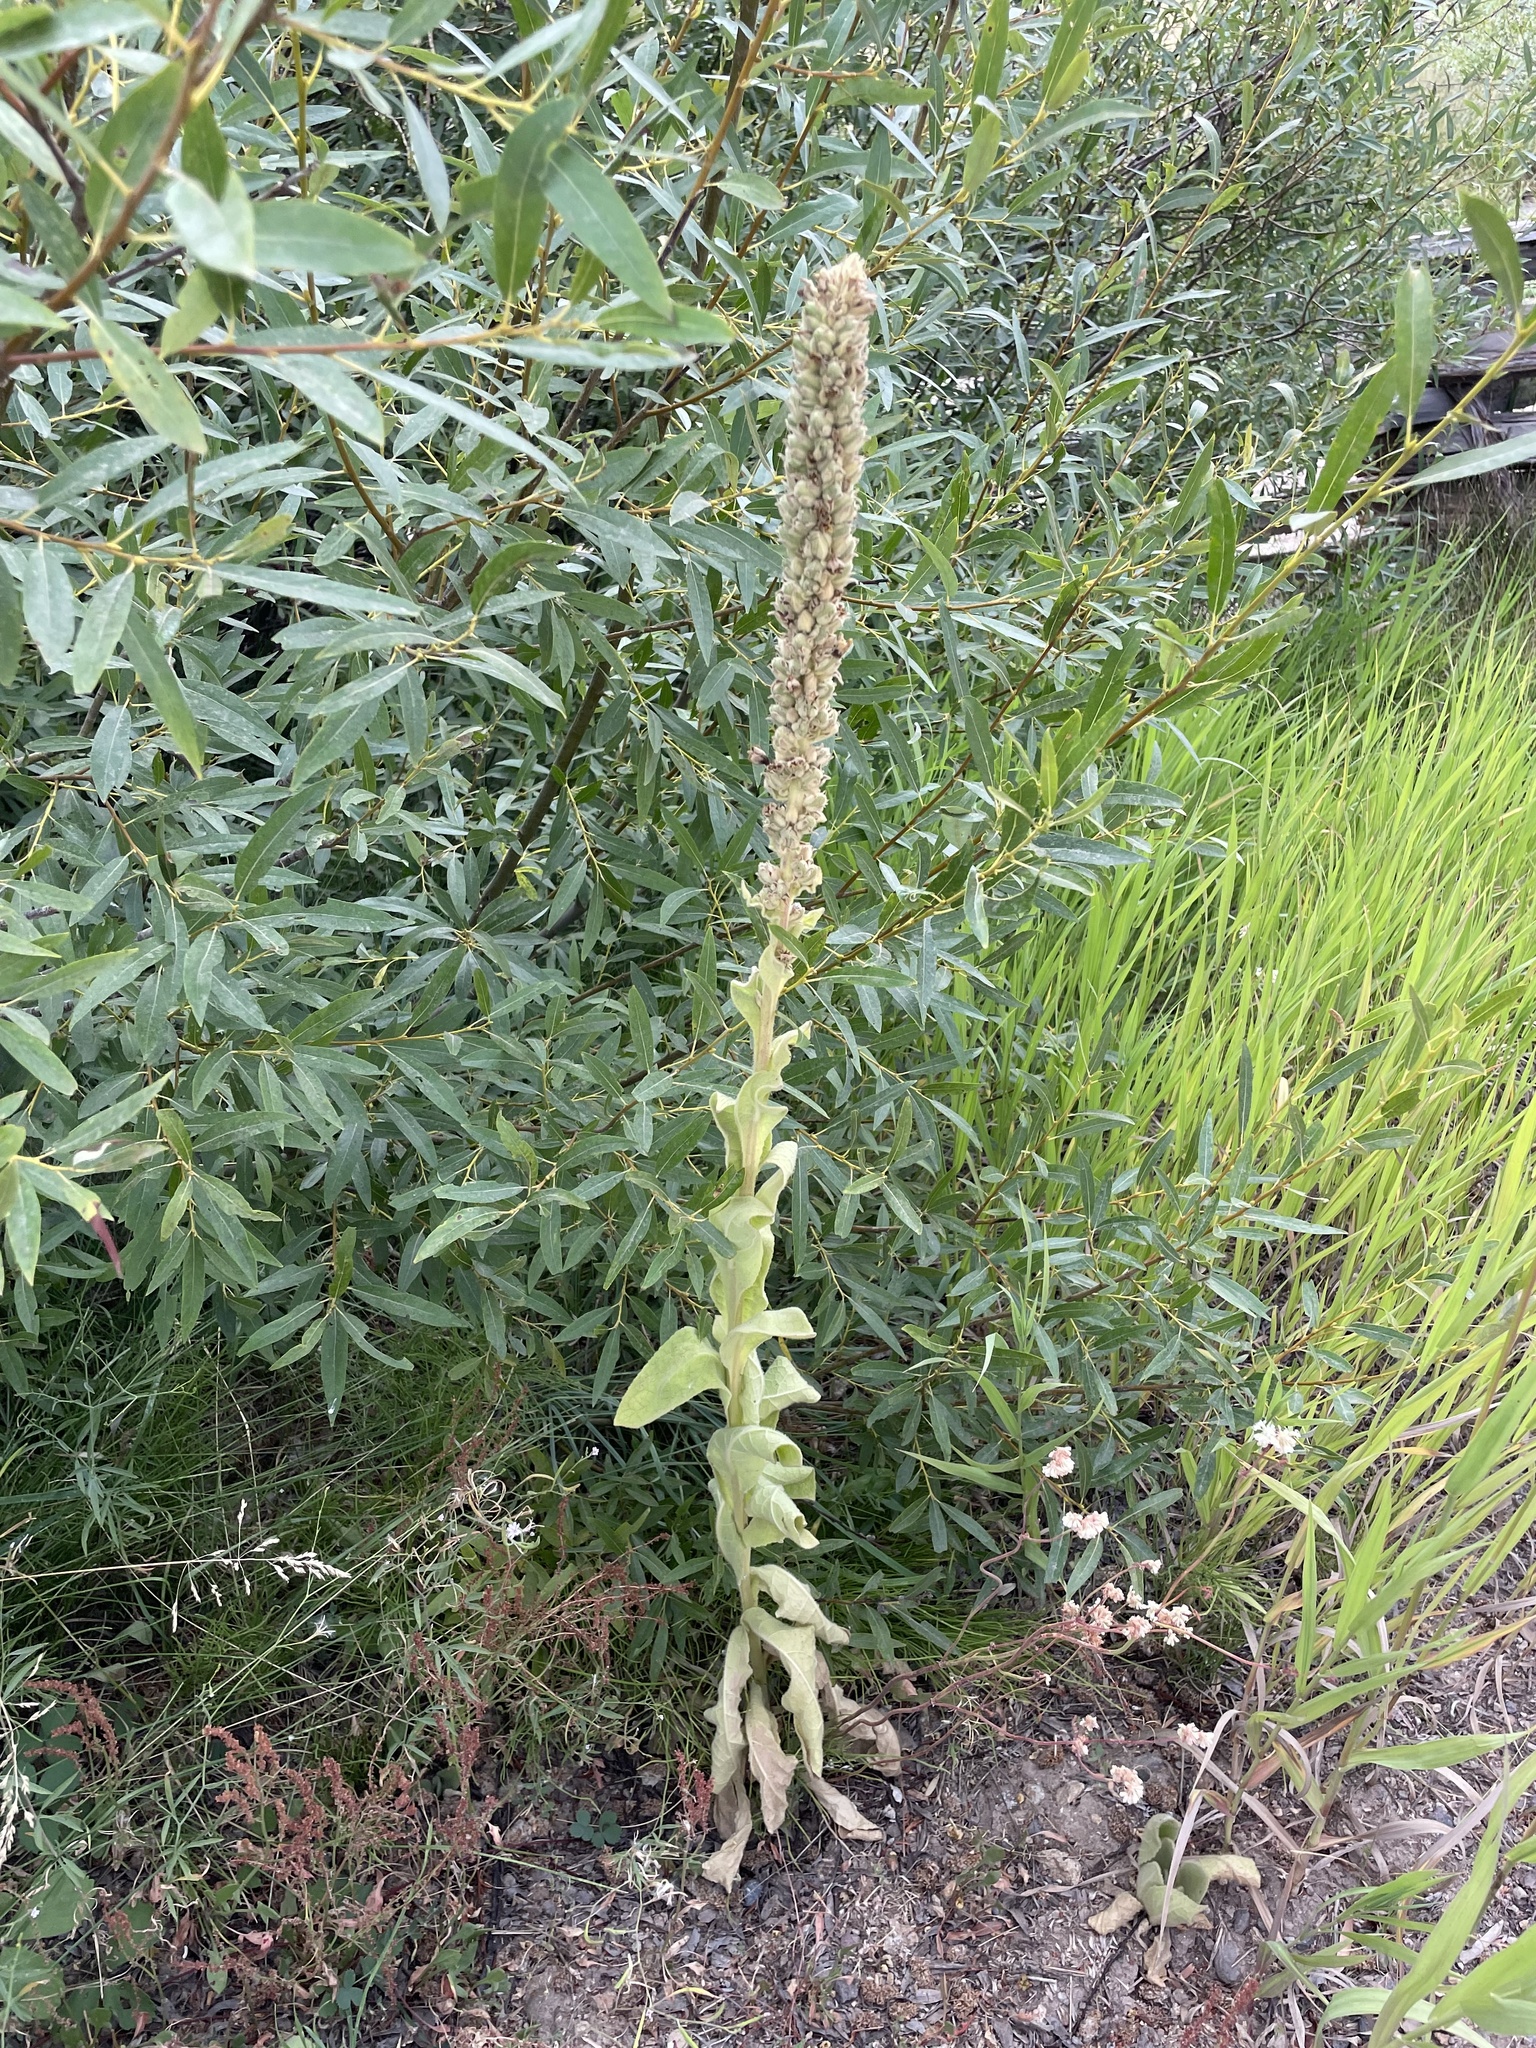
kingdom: Plantae
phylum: Tracheophyta
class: Magnoliopsida
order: Lamiales
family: Scrophulariaceae
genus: Verbascum
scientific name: Verbascum thapsus
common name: Common mullein
